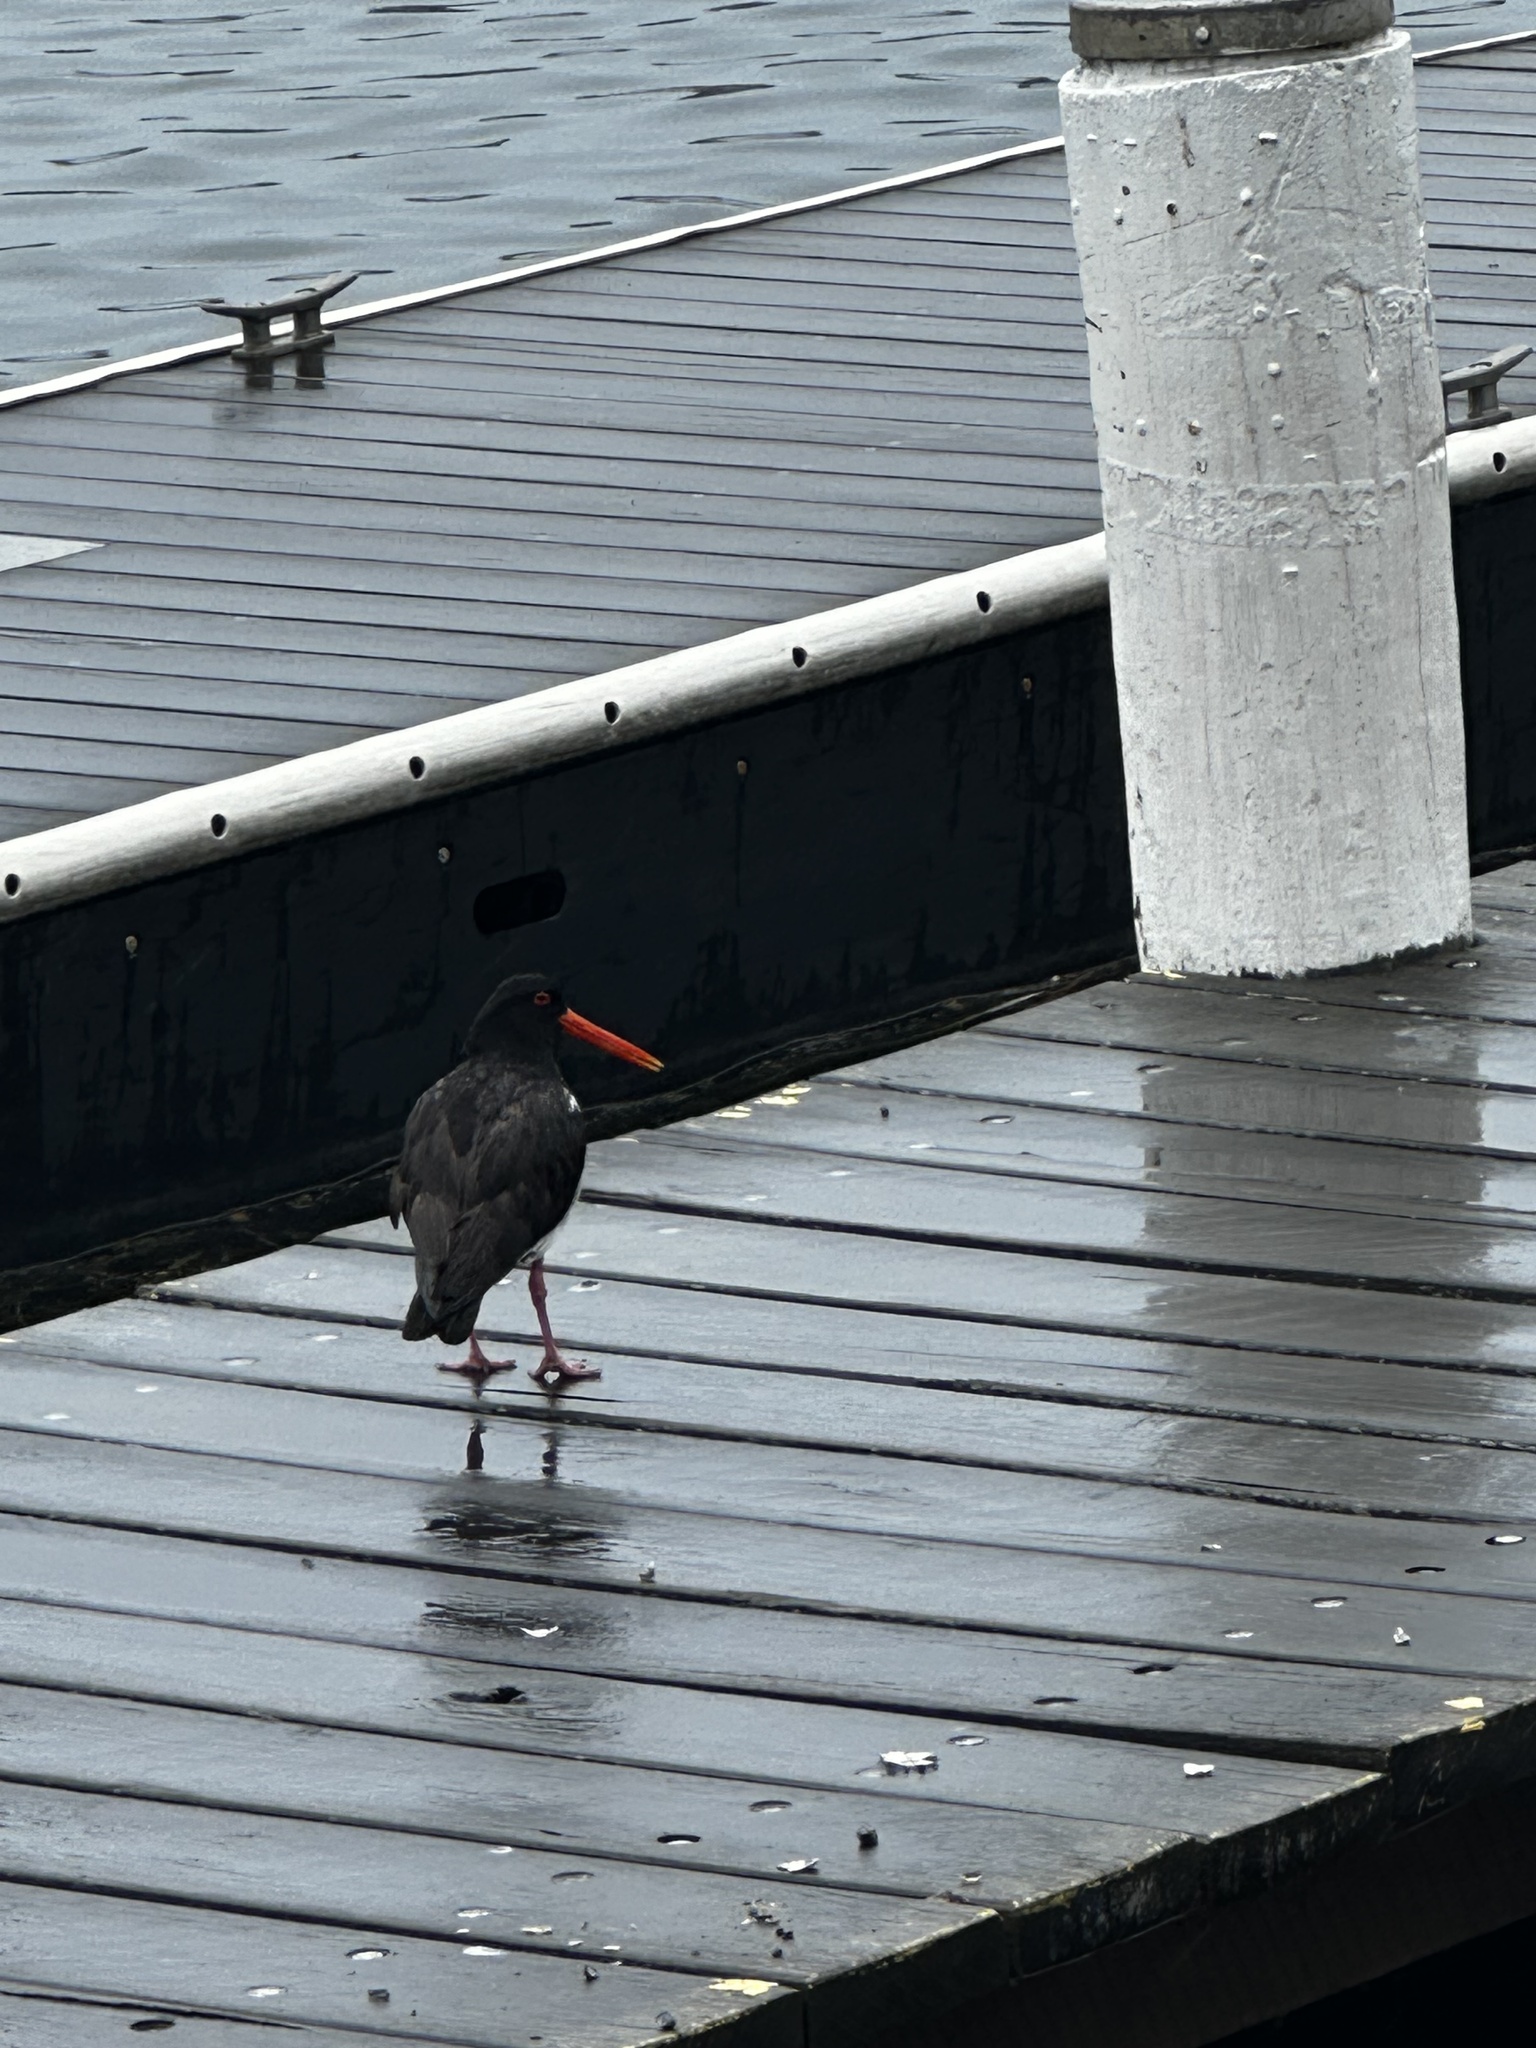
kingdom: Animalia
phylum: Chordata
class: Aves
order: Charadriiformes
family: Haematopodidae
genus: Haematopus
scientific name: Haematopus longirostris
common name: Pied oystercatcher
